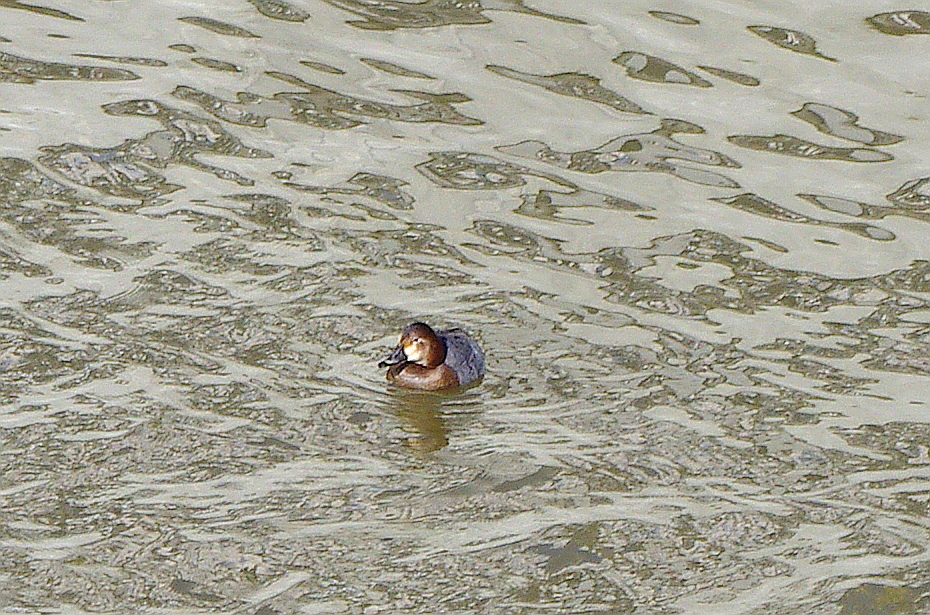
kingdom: Animalia
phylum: Chordata
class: Aves
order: Anseriformes
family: Anatidae
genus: Aythya
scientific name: Aythya ferina
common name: Common pochard
